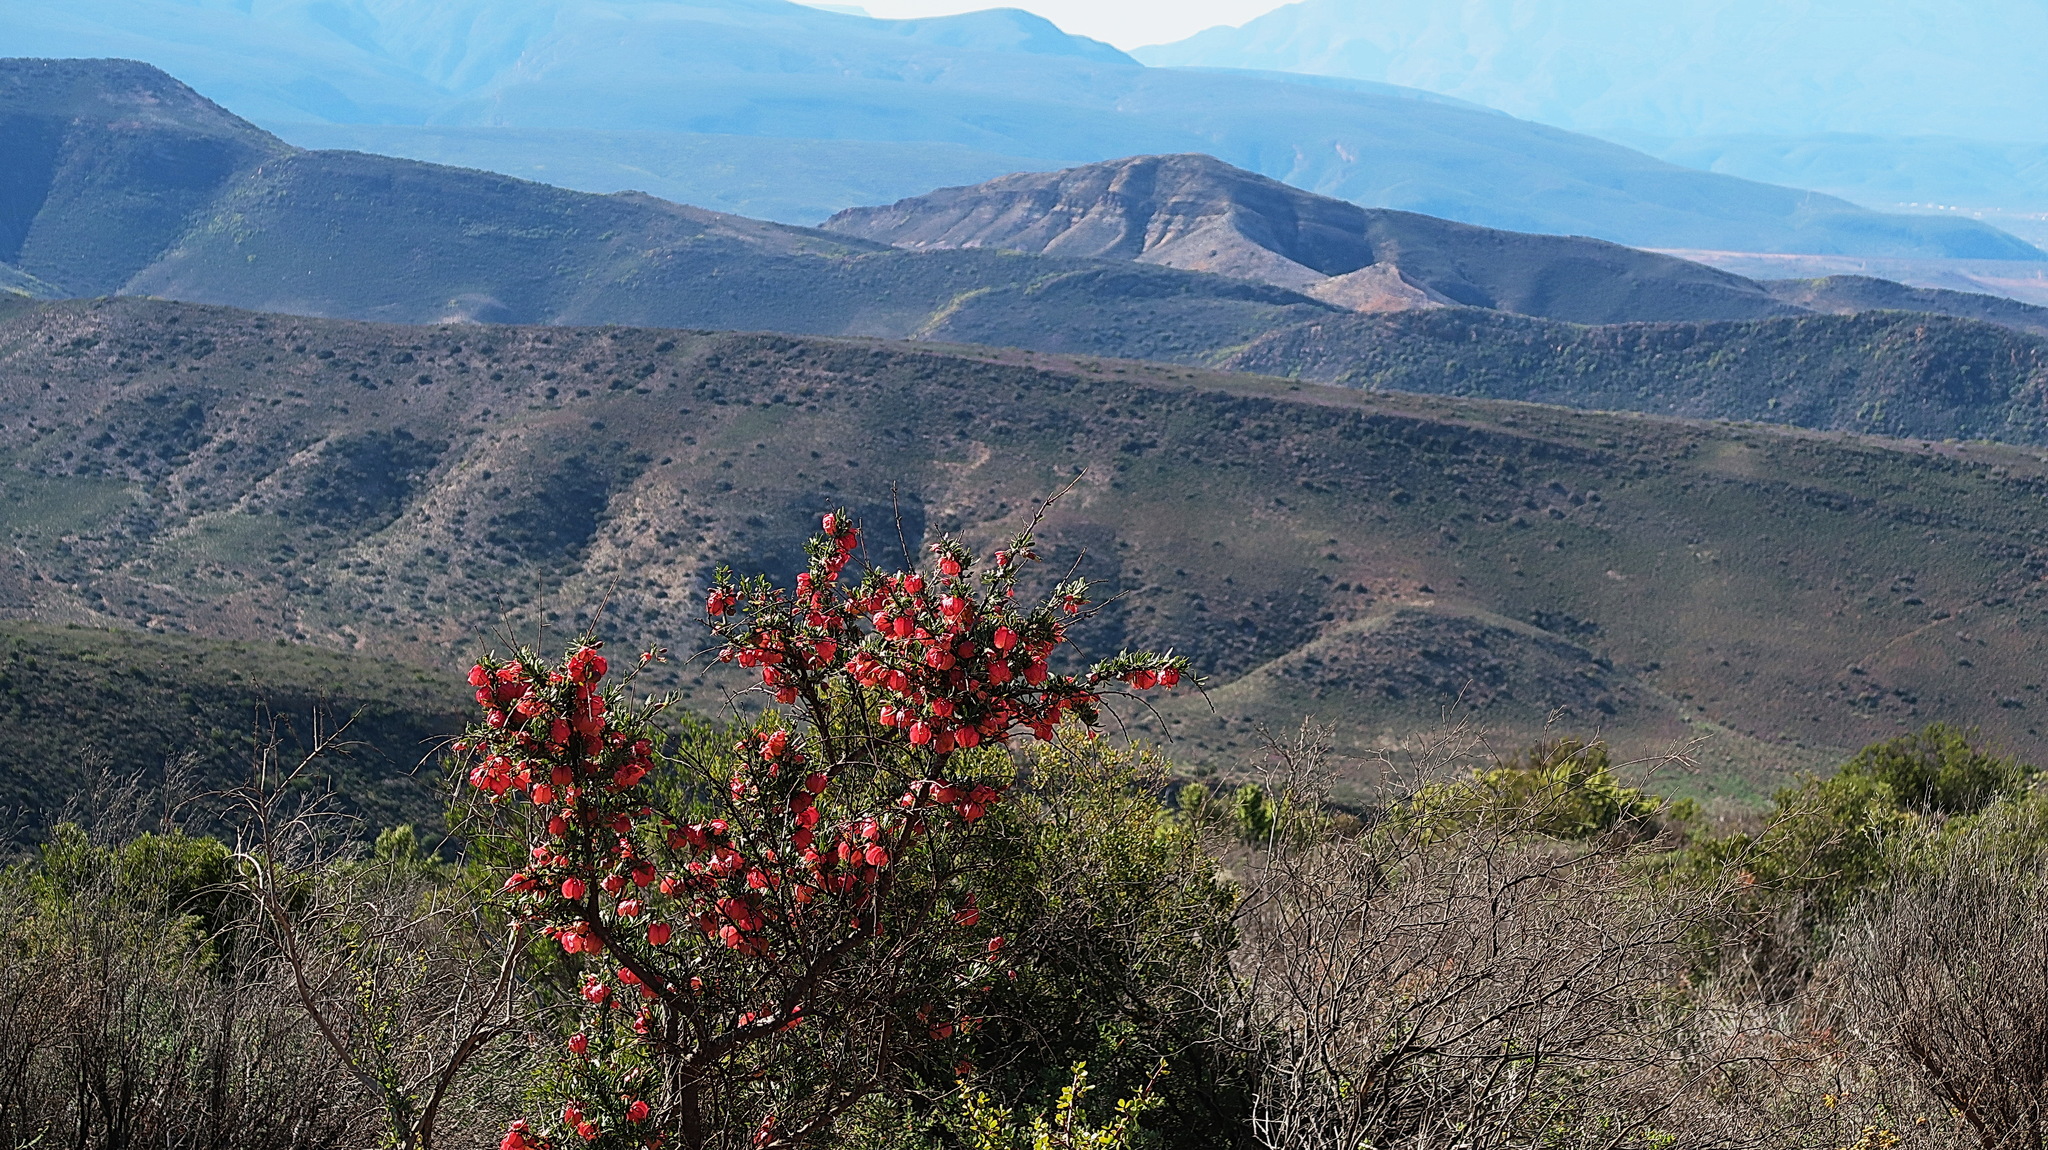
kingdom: Plantae
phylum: Tracheophyta
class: Magnoliopsida
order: Sapindales
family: Meliaceae
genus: Nymania
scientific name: Nymania capensis
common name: Chinese lantern tree
